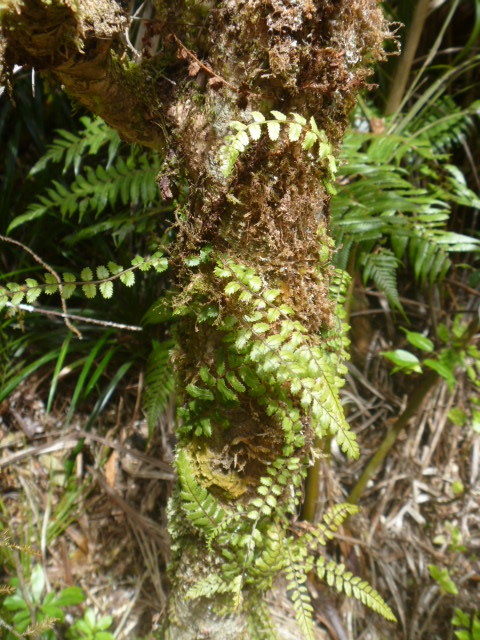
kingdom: Plantae
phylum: Tracheophyta
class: Polypodiopsida
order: Polypodiales
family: Blechnaceae
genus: Icarus
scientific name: Icarus filiformis
